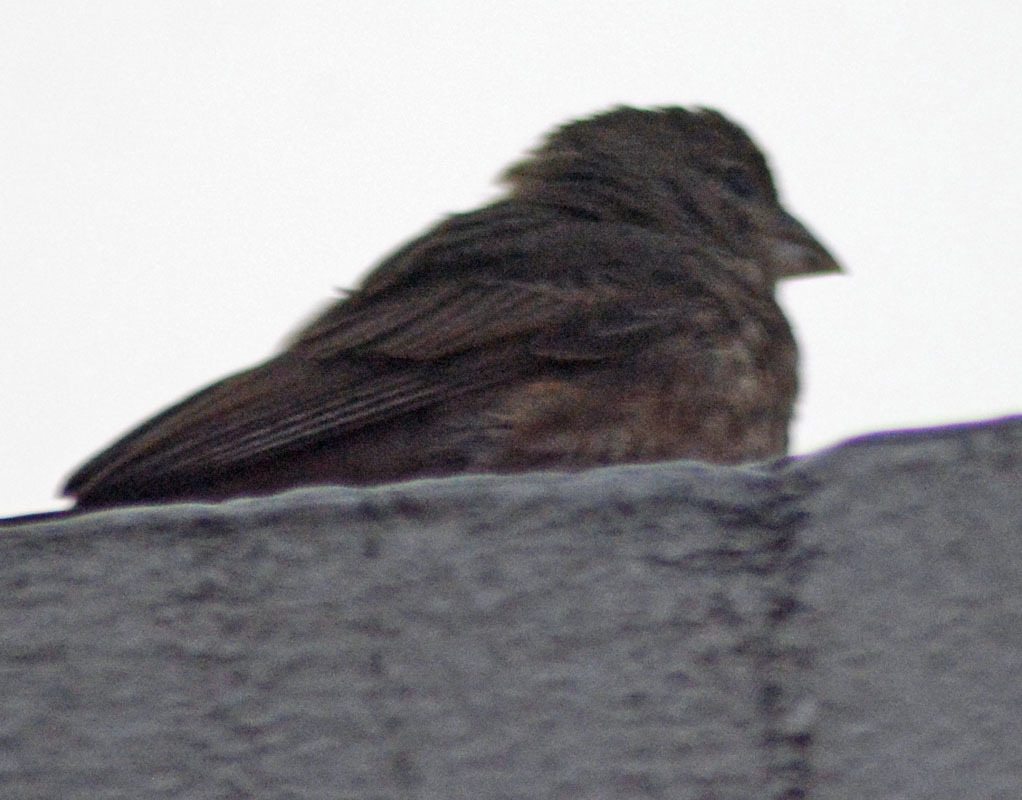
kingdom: Animalia
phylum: Chordata
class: Aves
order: Passeriformes
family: Fringillidae
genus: Haemorhous
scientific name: Haemorhous mexicanus
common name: House finch
